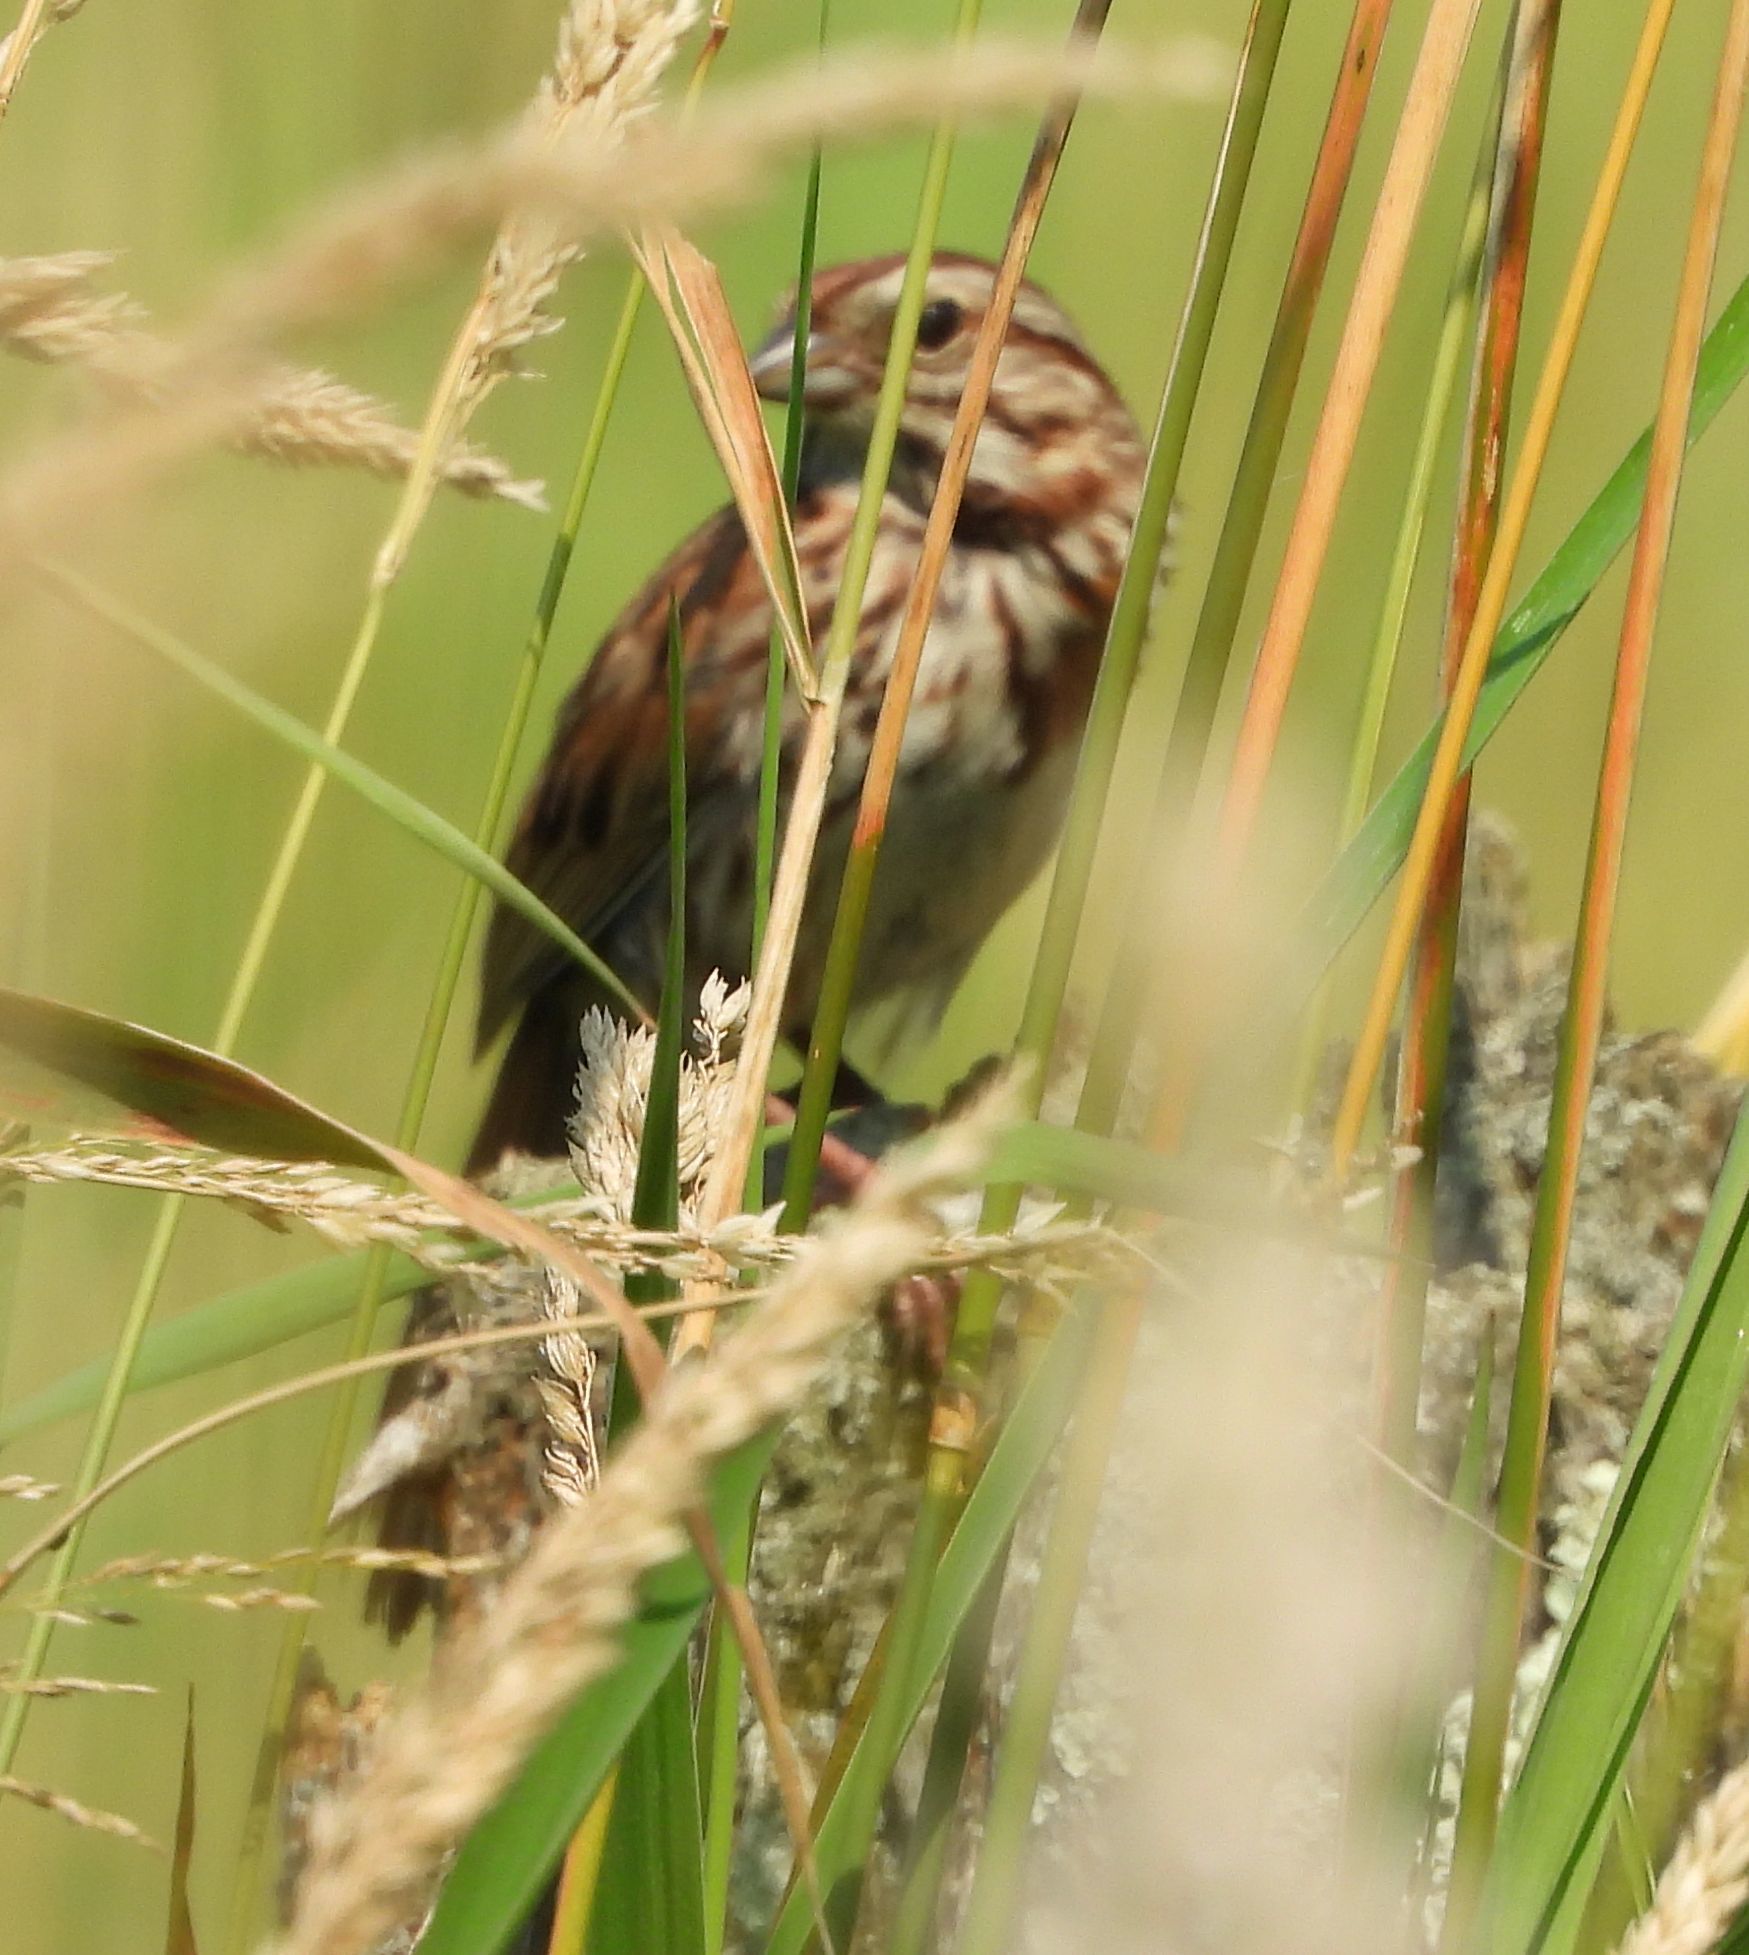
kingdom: Animalia
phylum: Chordata
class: Aves
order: Passeriformes
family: Passerellidae
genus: Melospiza
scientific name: Melospiza melodia
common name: Song sparrow
